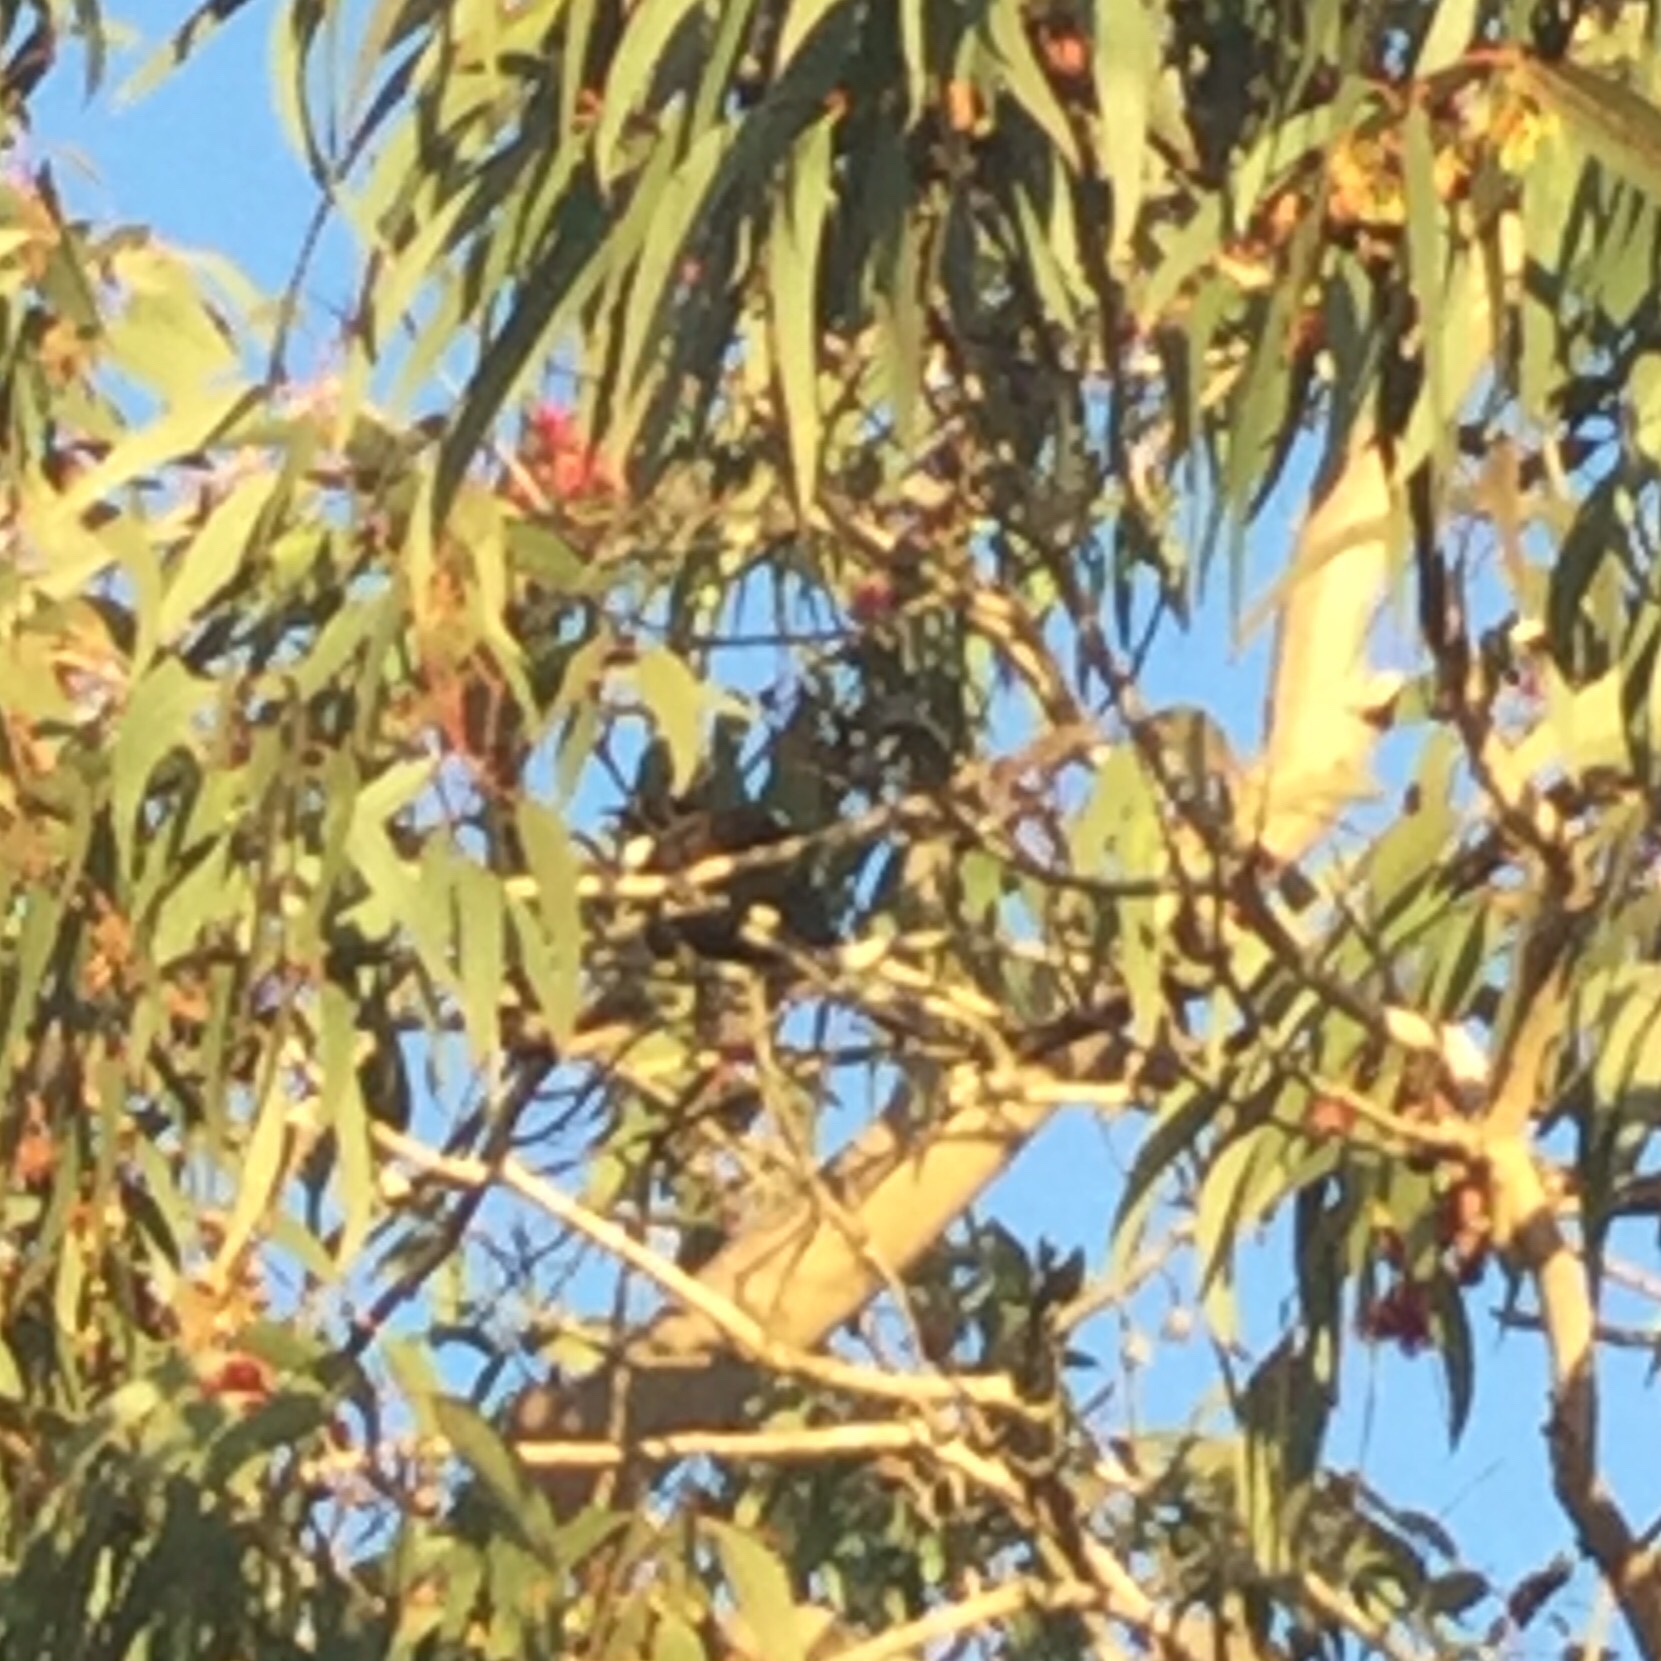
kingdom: Animalia
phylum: Chordata
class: Aves
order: Passeriformes
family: Meliphagidae
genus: Prosthemadera
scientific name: Prosthemadera novaeseelandiae
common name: Tui
